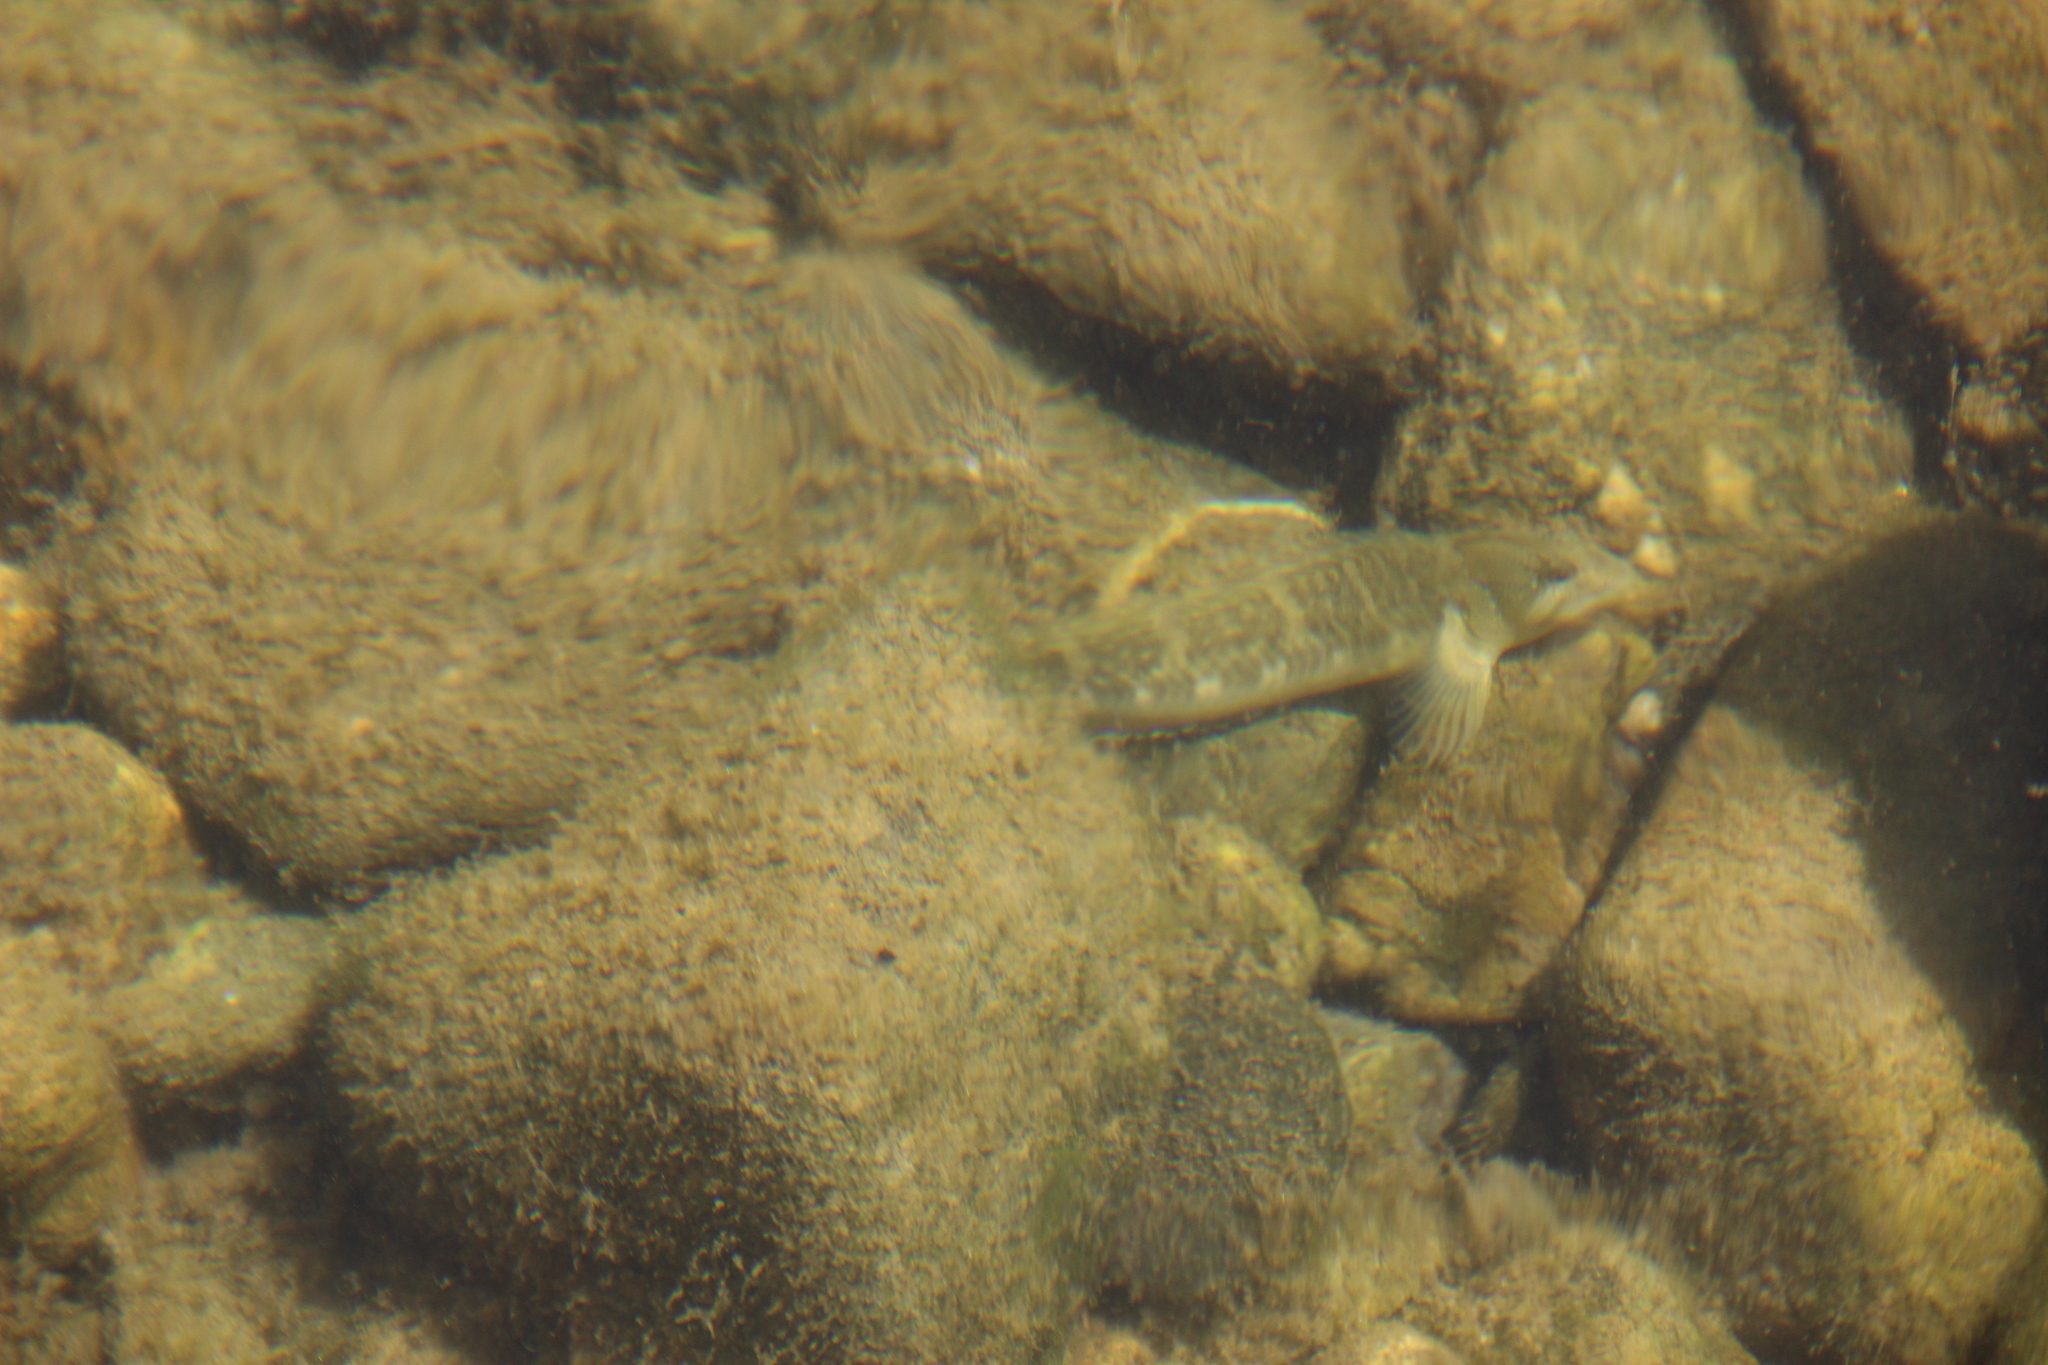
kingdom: Animalia
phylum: Chordata
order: Perciformes
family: Blenniidae
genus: Salaria
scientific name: Salaria fluviatilis
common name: Freshwater blenny
